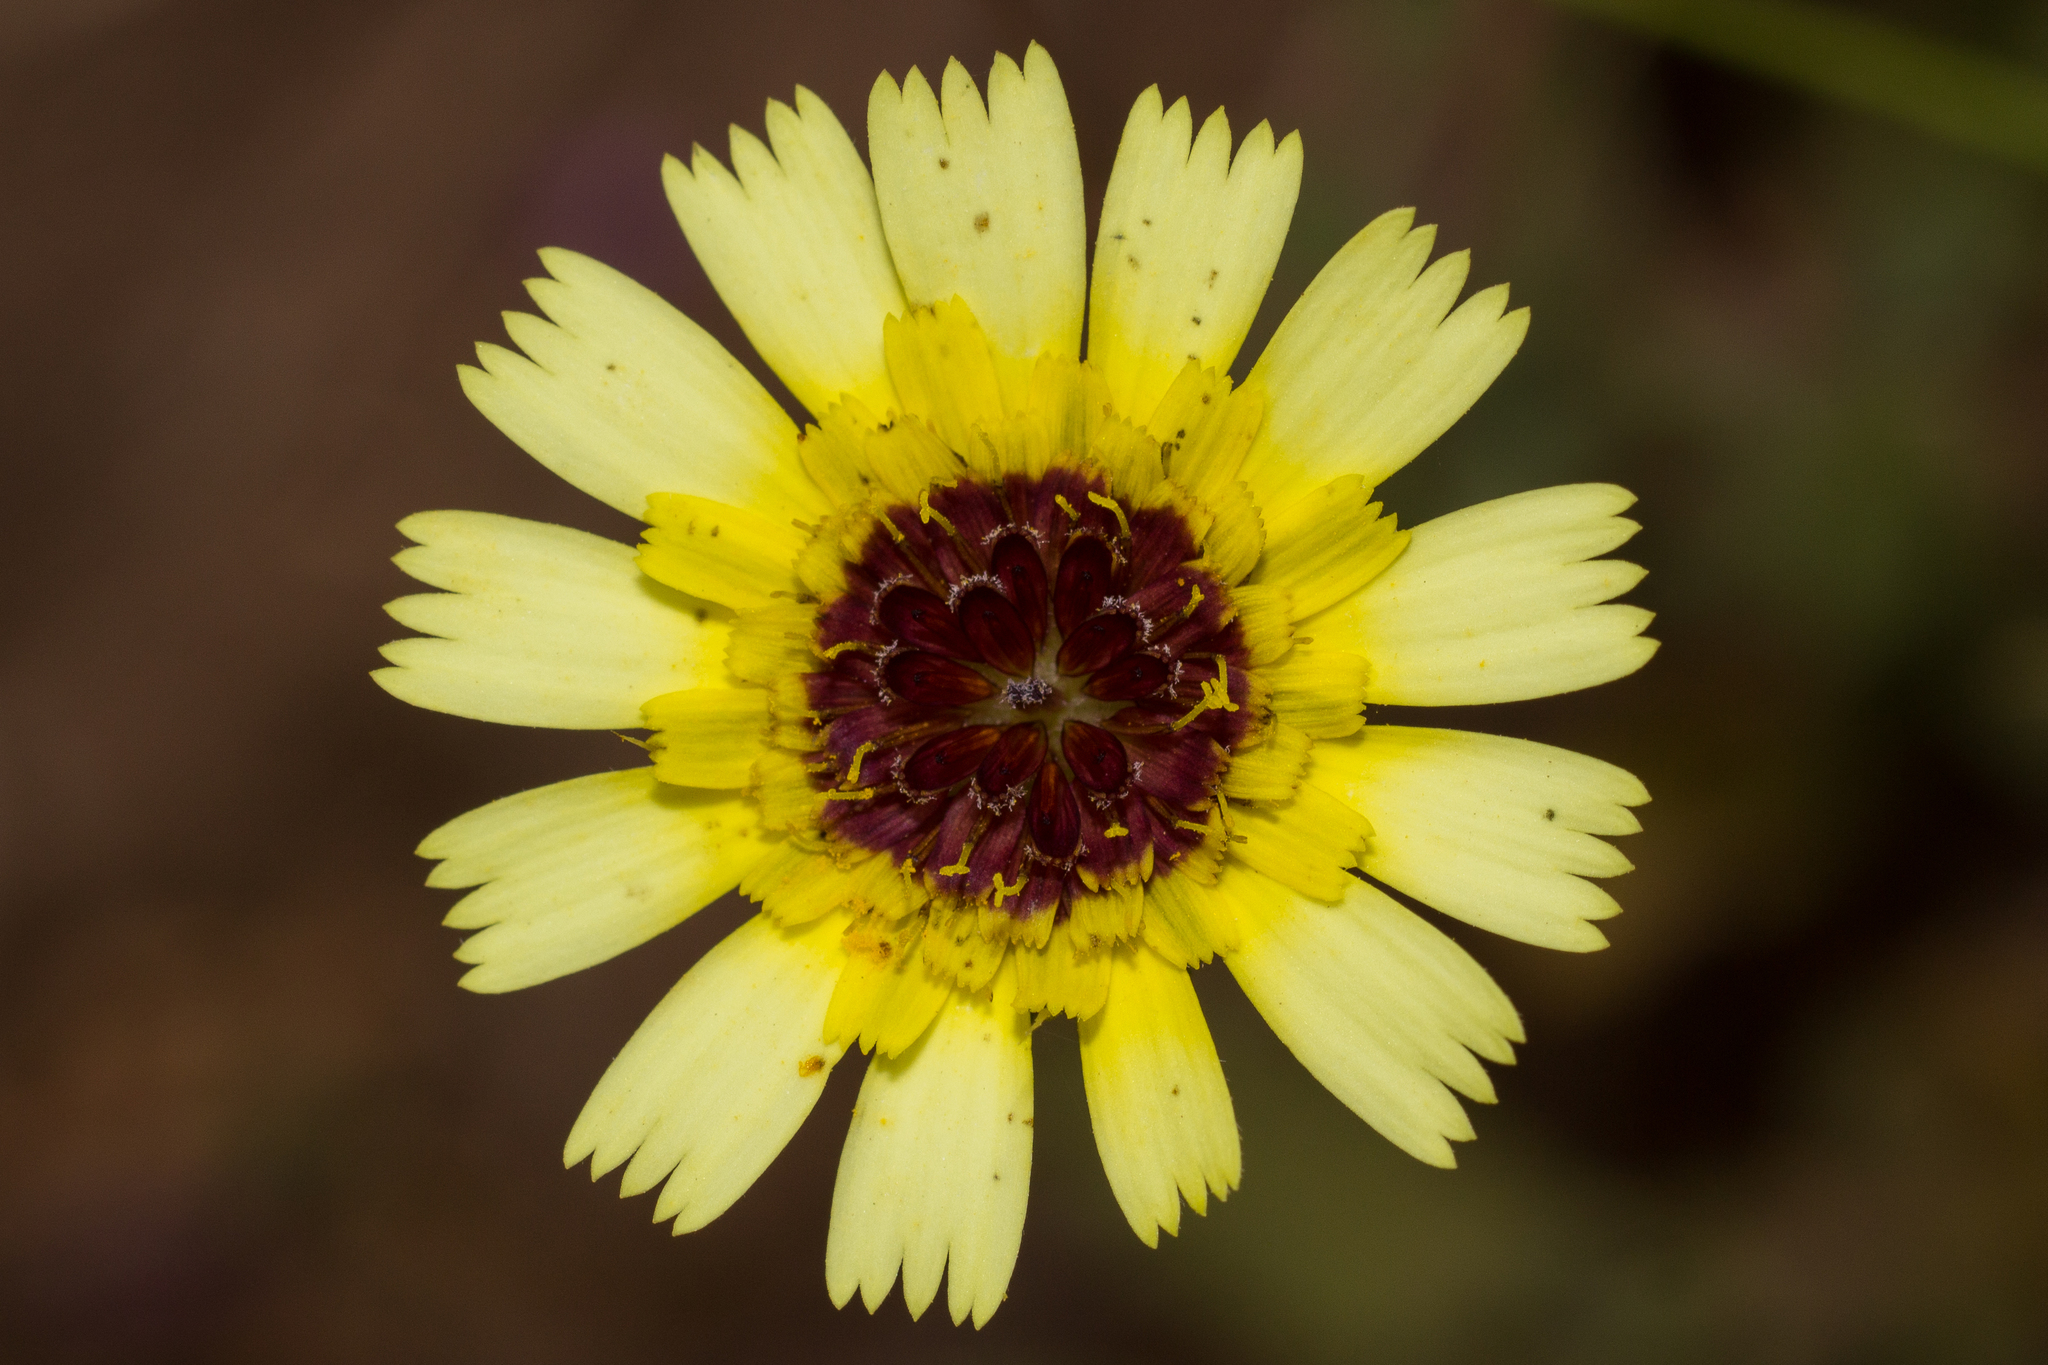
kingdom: Plantae
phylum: Tracheophyta
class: Magnoliopsida
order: Asterales
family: Asteraceae
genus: Tolpis
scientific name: Tolpis barbata
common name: Yellow hawkweed
